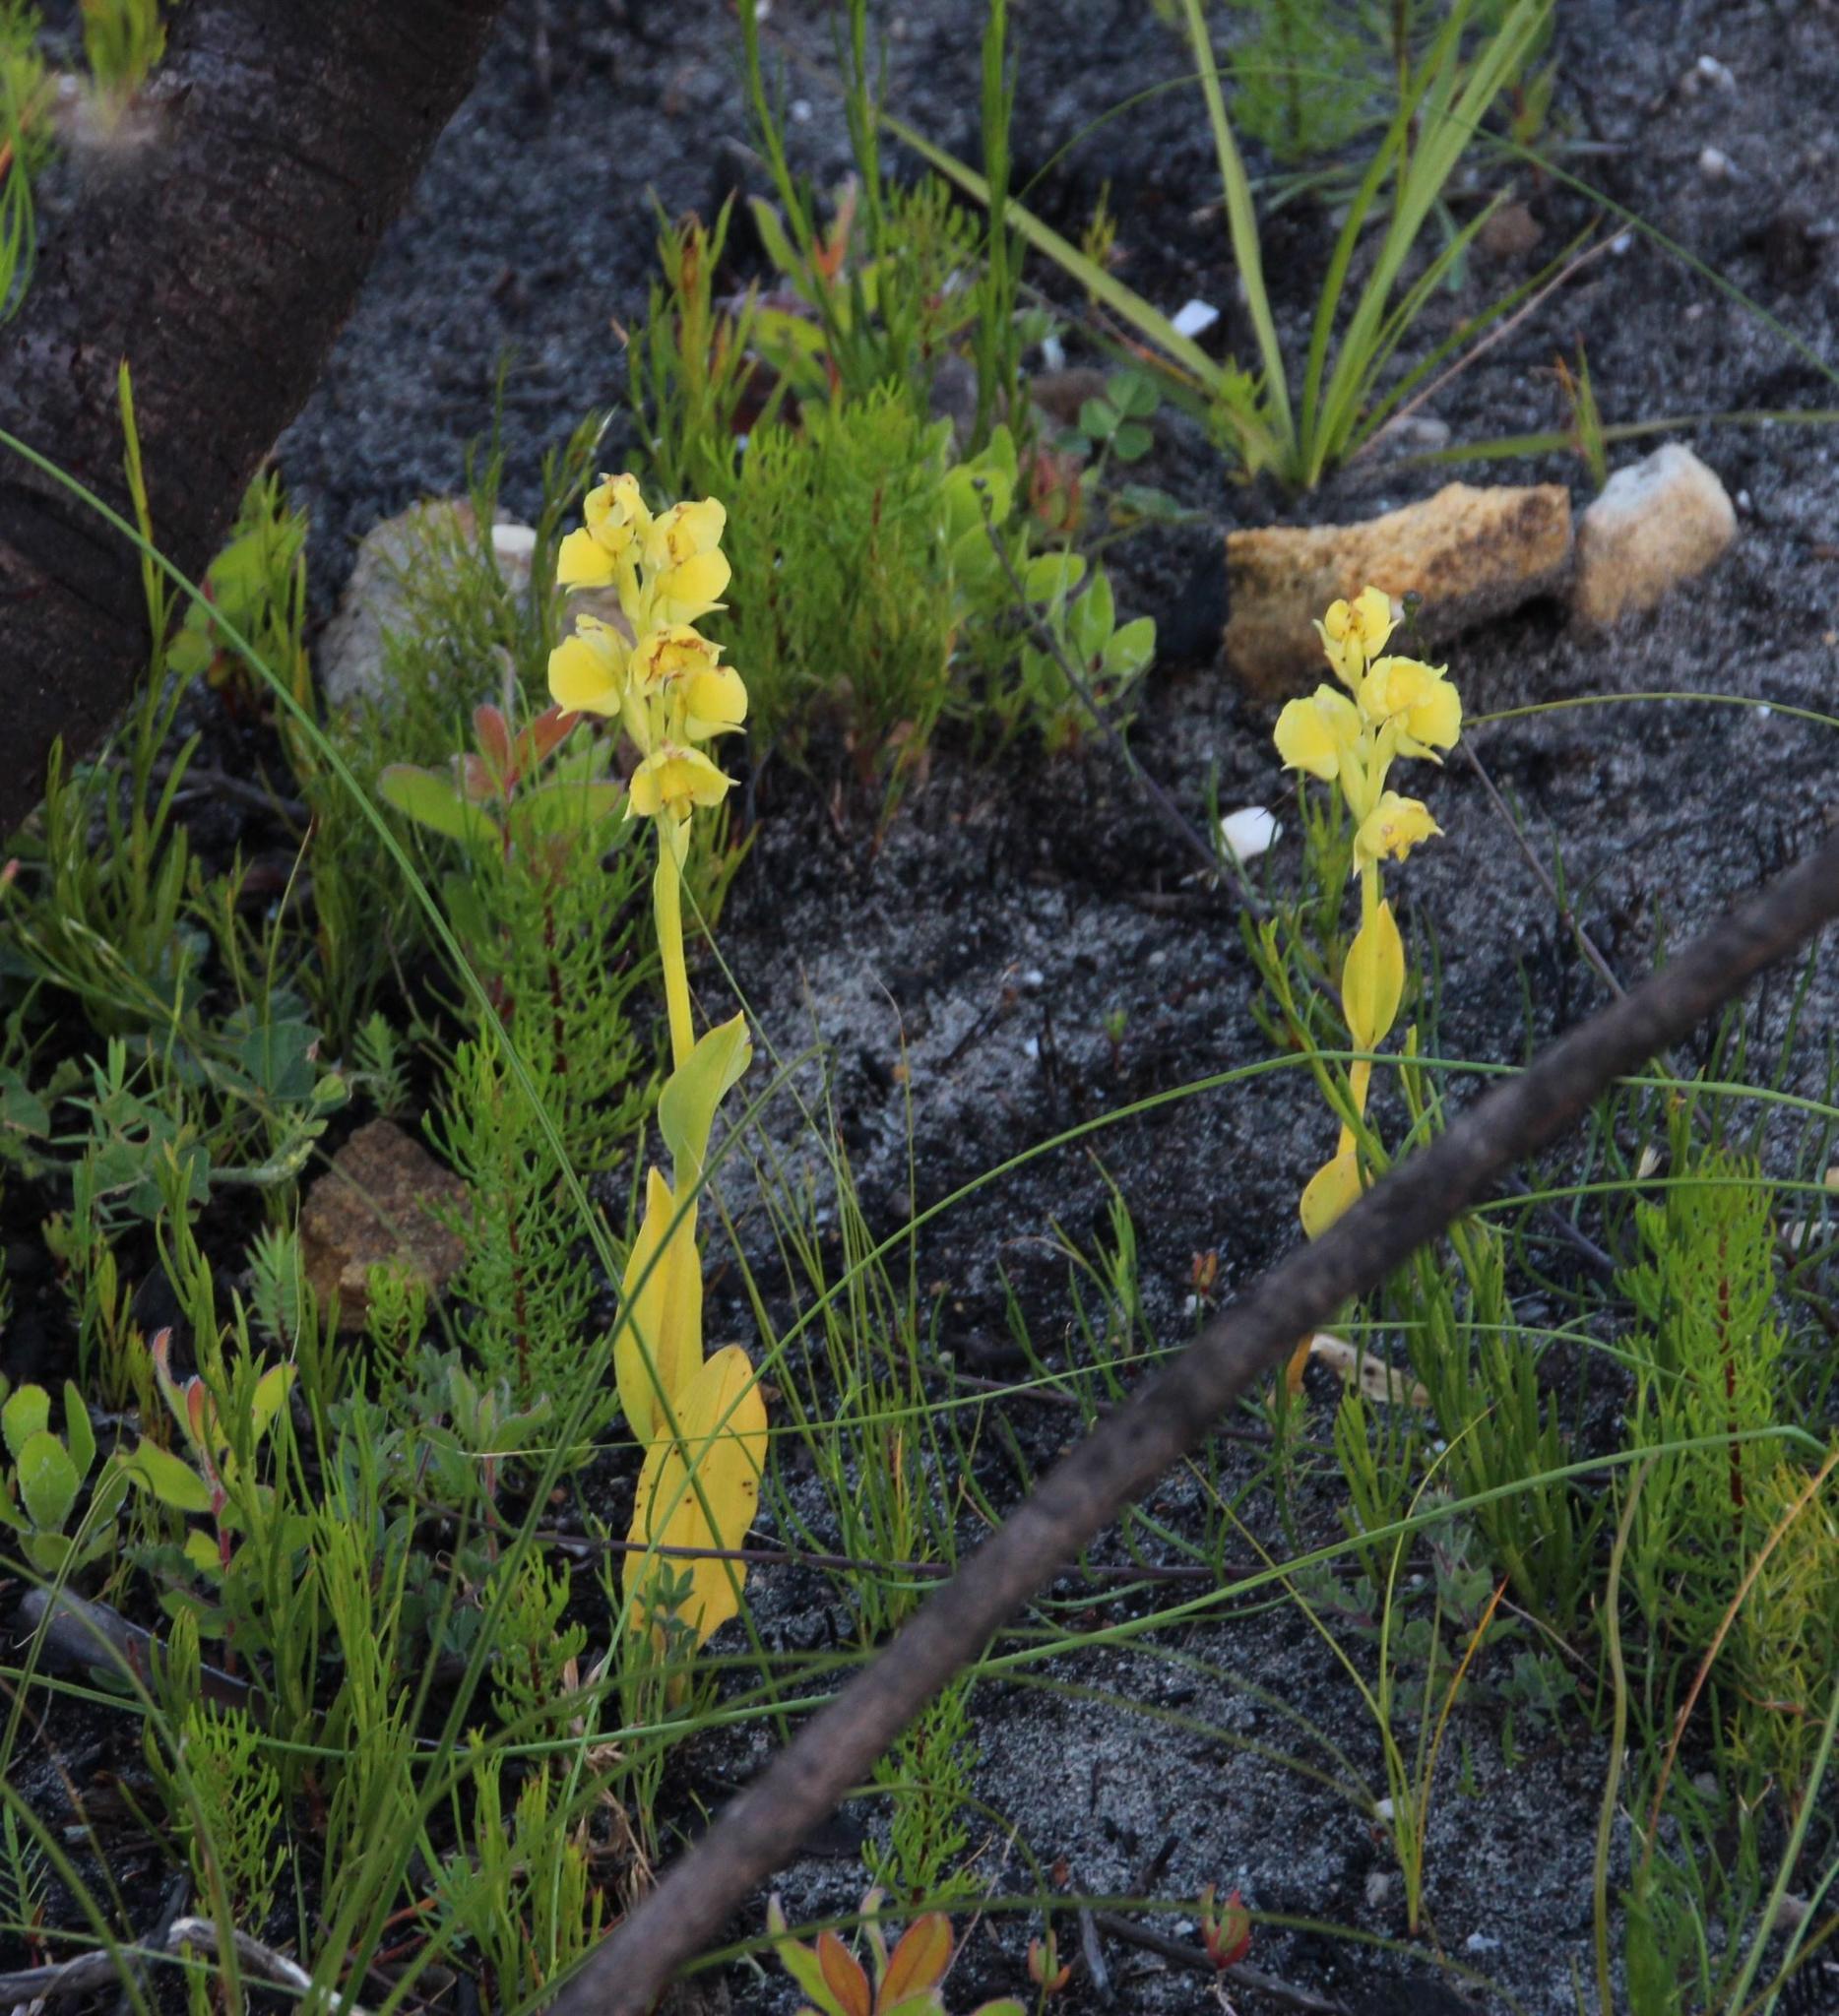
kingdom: Plantae
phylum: Tracheophyta
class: Liliopsida
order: Asparagales
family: Orchidaceae
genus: Pterygodium
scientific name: Pterygodium catholicum
